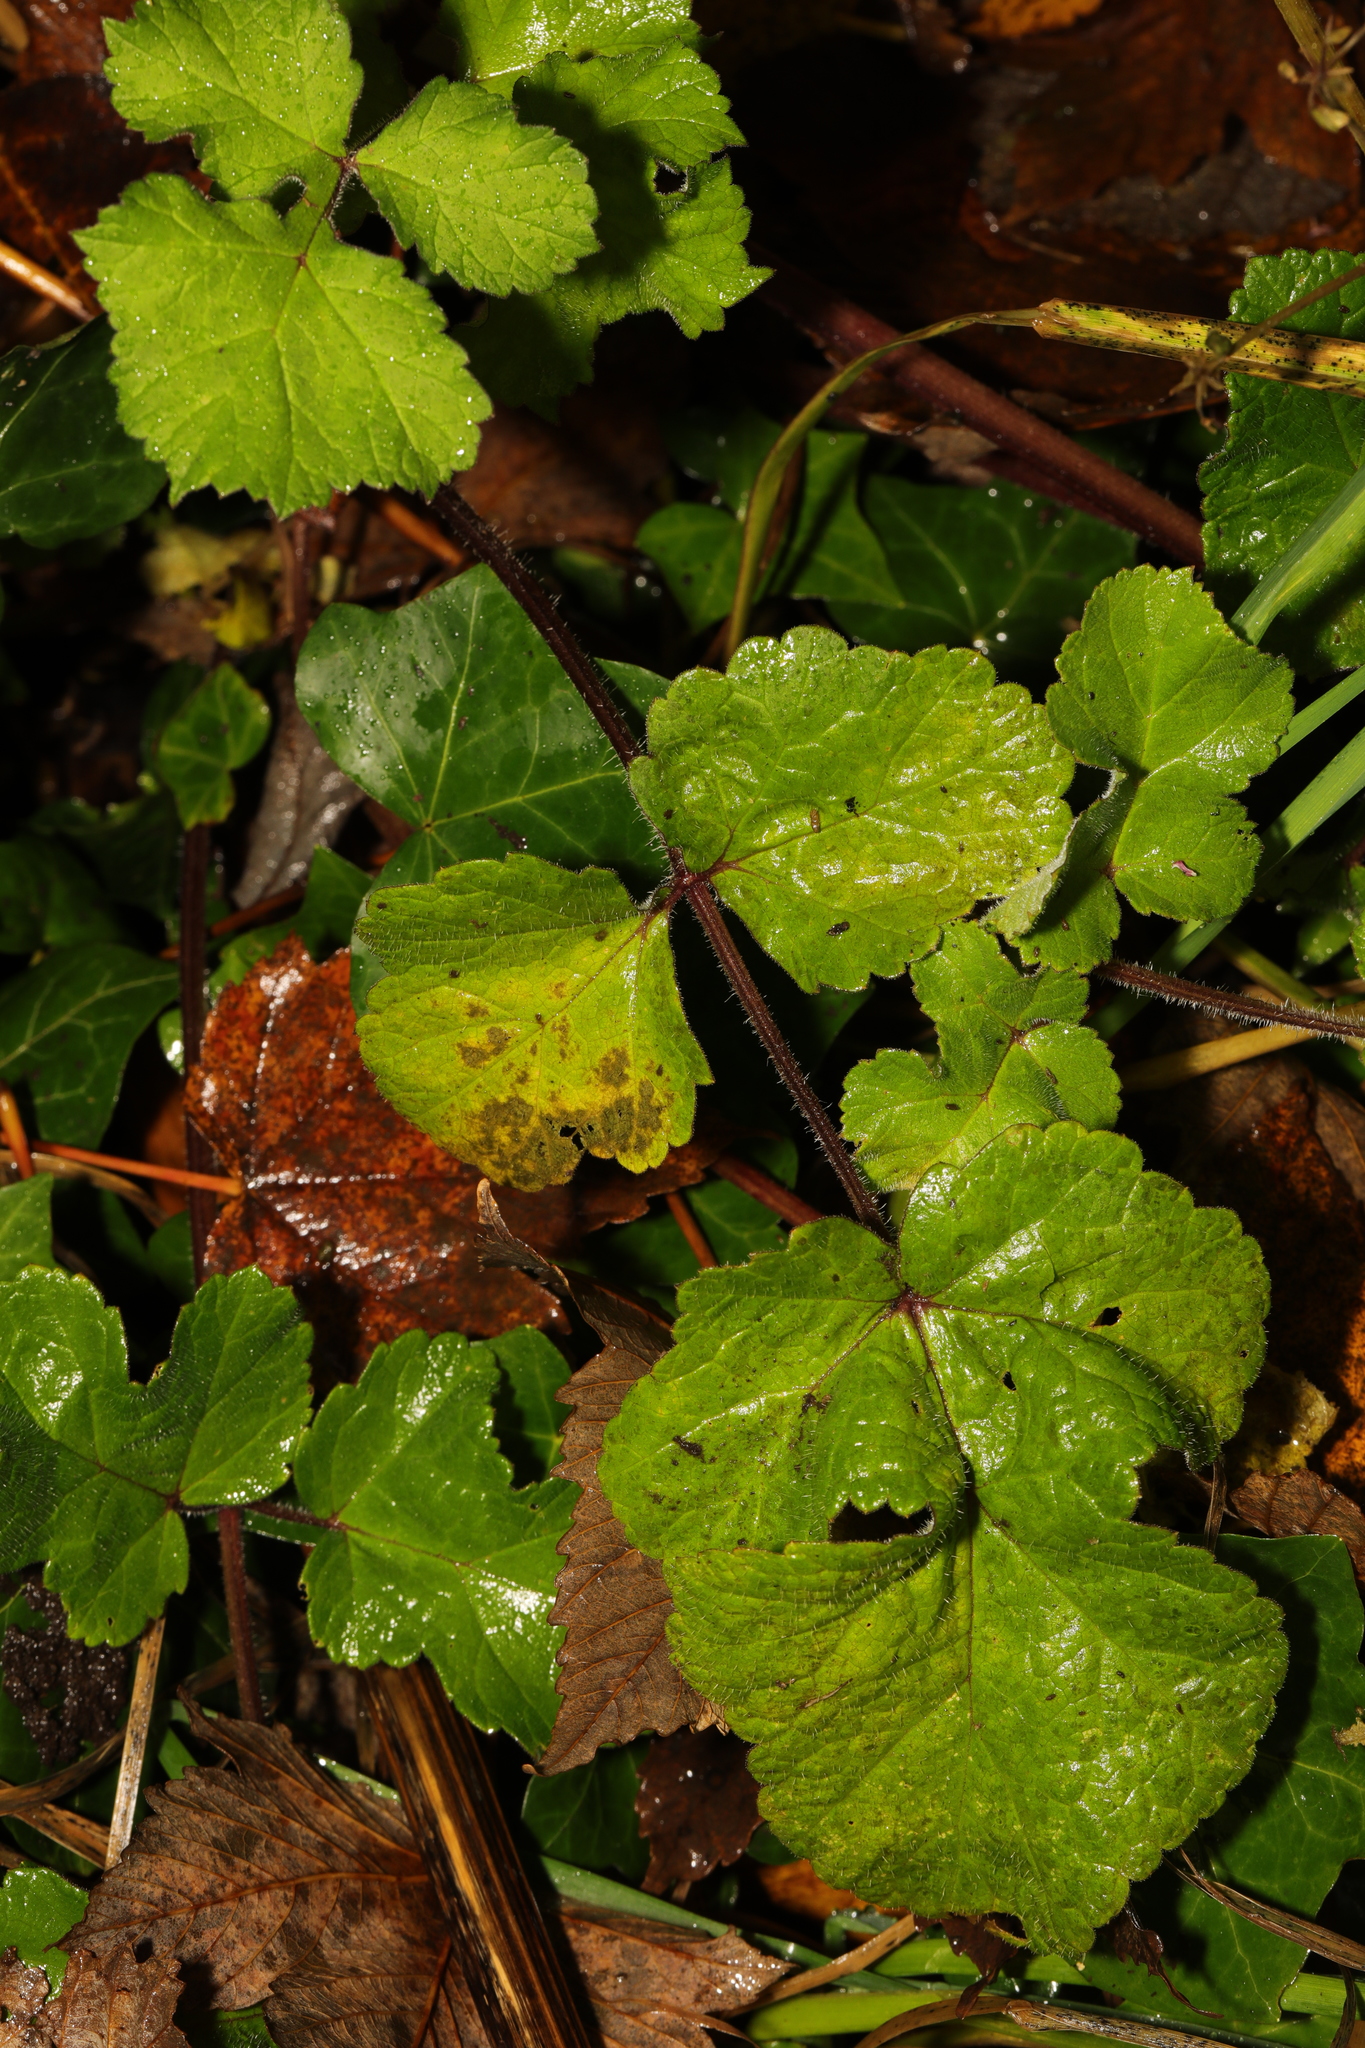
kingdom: Plantae
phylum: Tracheophyta
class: Magnoliopsida
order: Rosales
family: Rosaceae
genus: Geum
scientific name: Geum urbanum
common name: Wood avens
